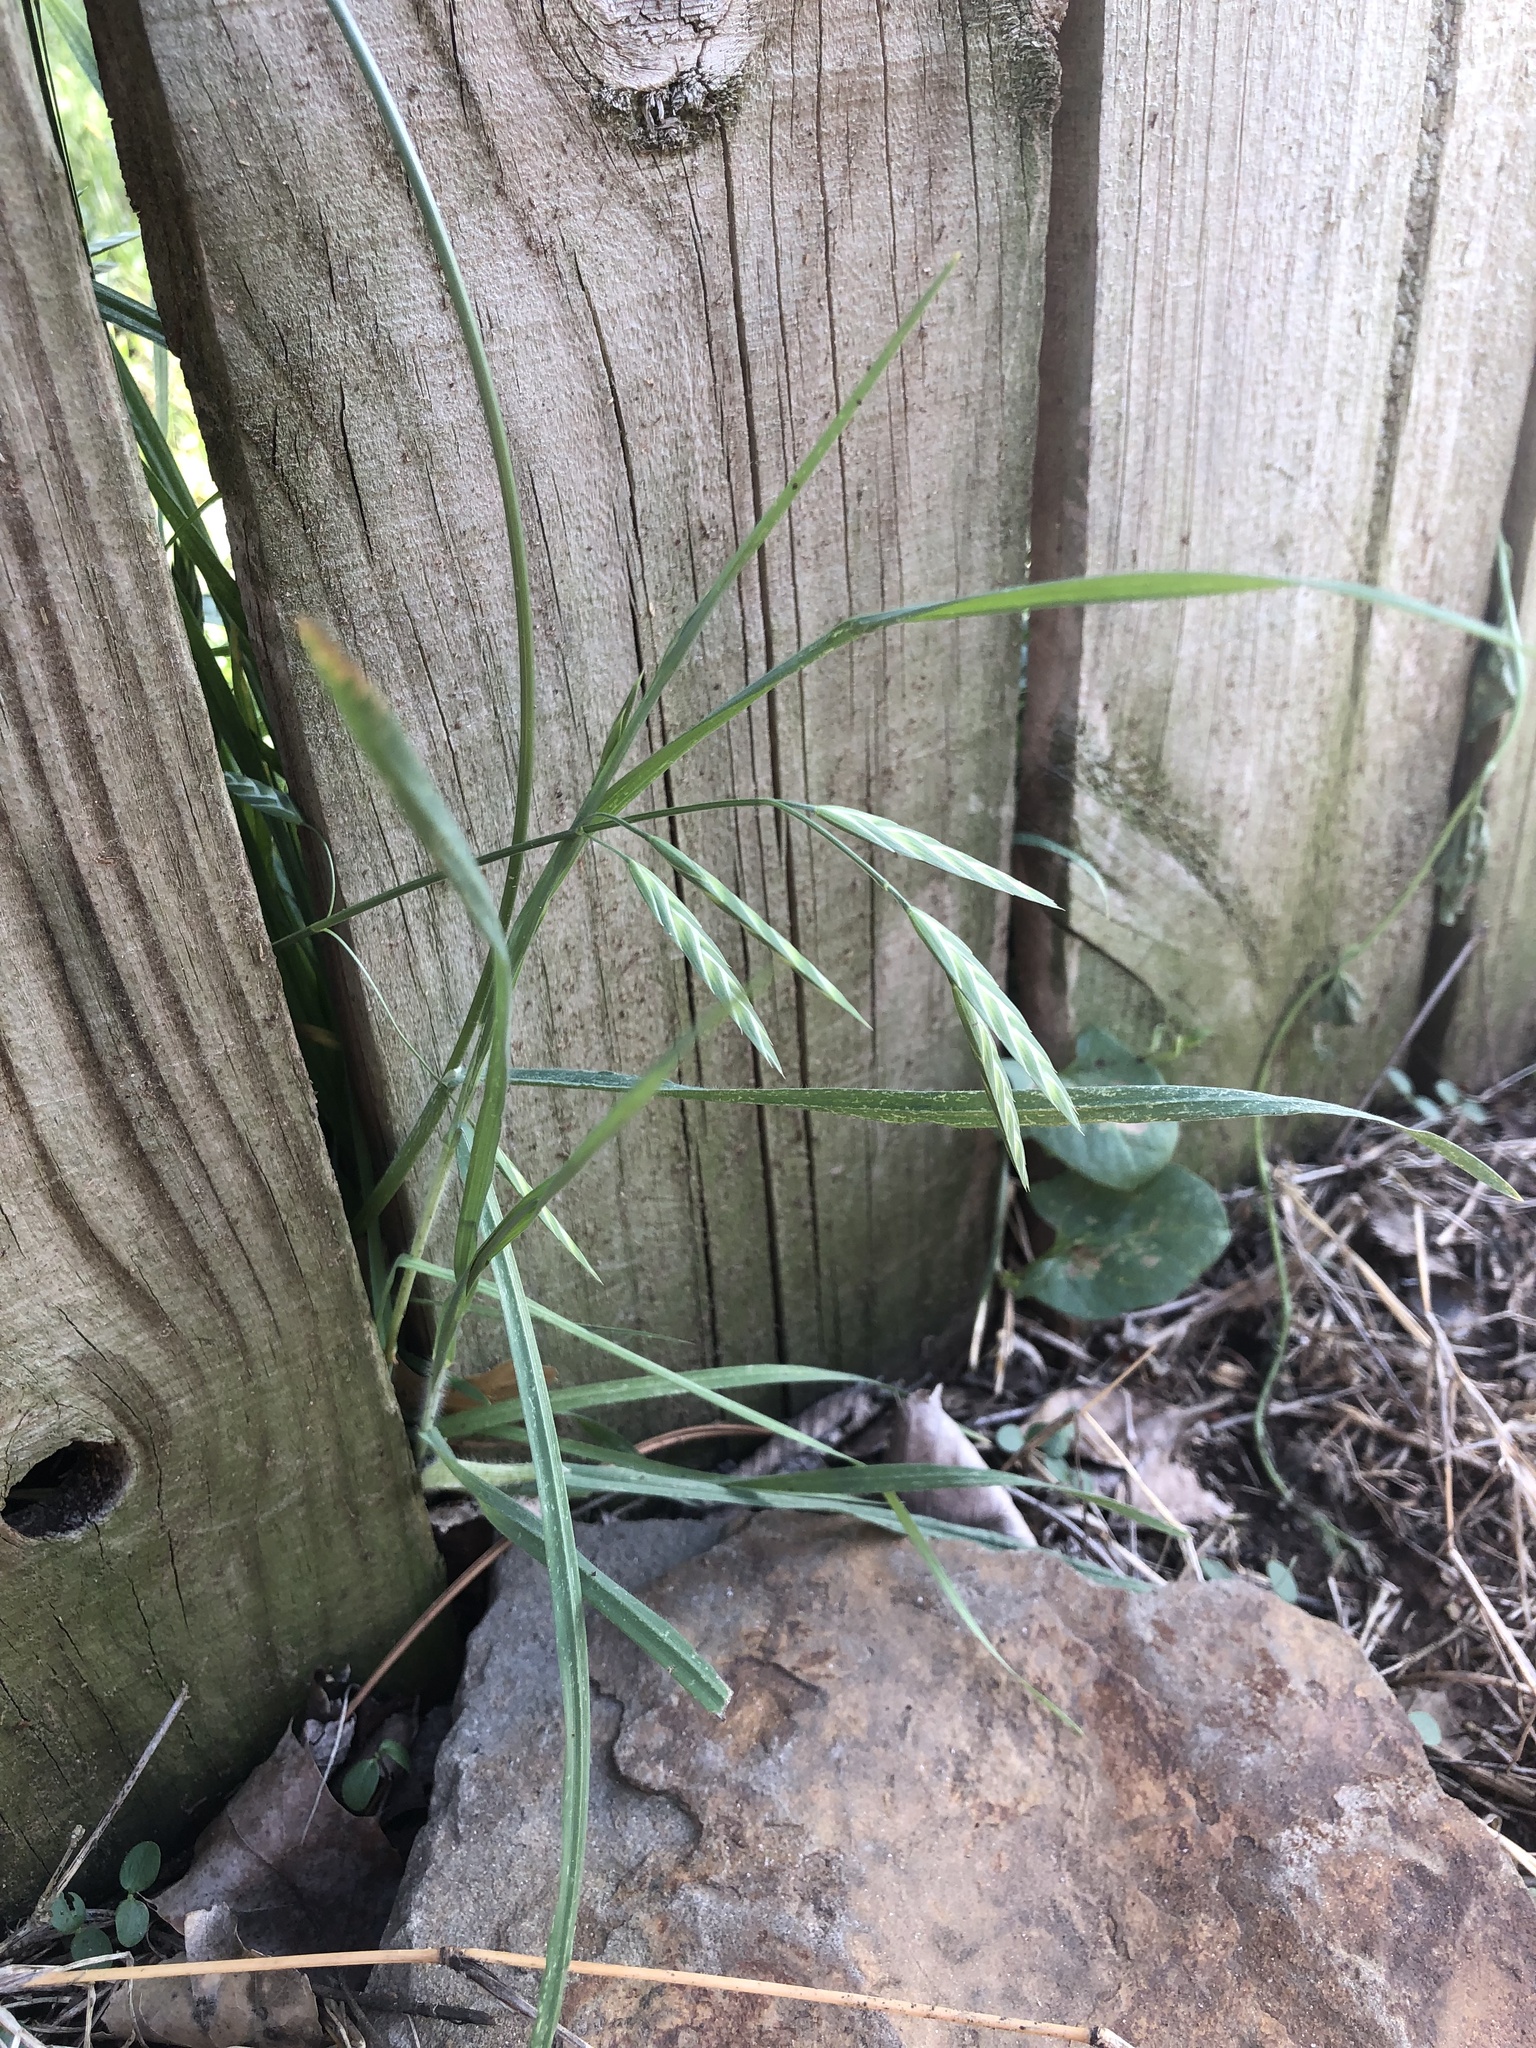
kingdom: Plantae
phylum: Tracheophyta
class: Liliopsida
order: Poales
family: Poaceae
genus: Bromus
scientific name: Bromus catharticus
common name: Rescuegrass
